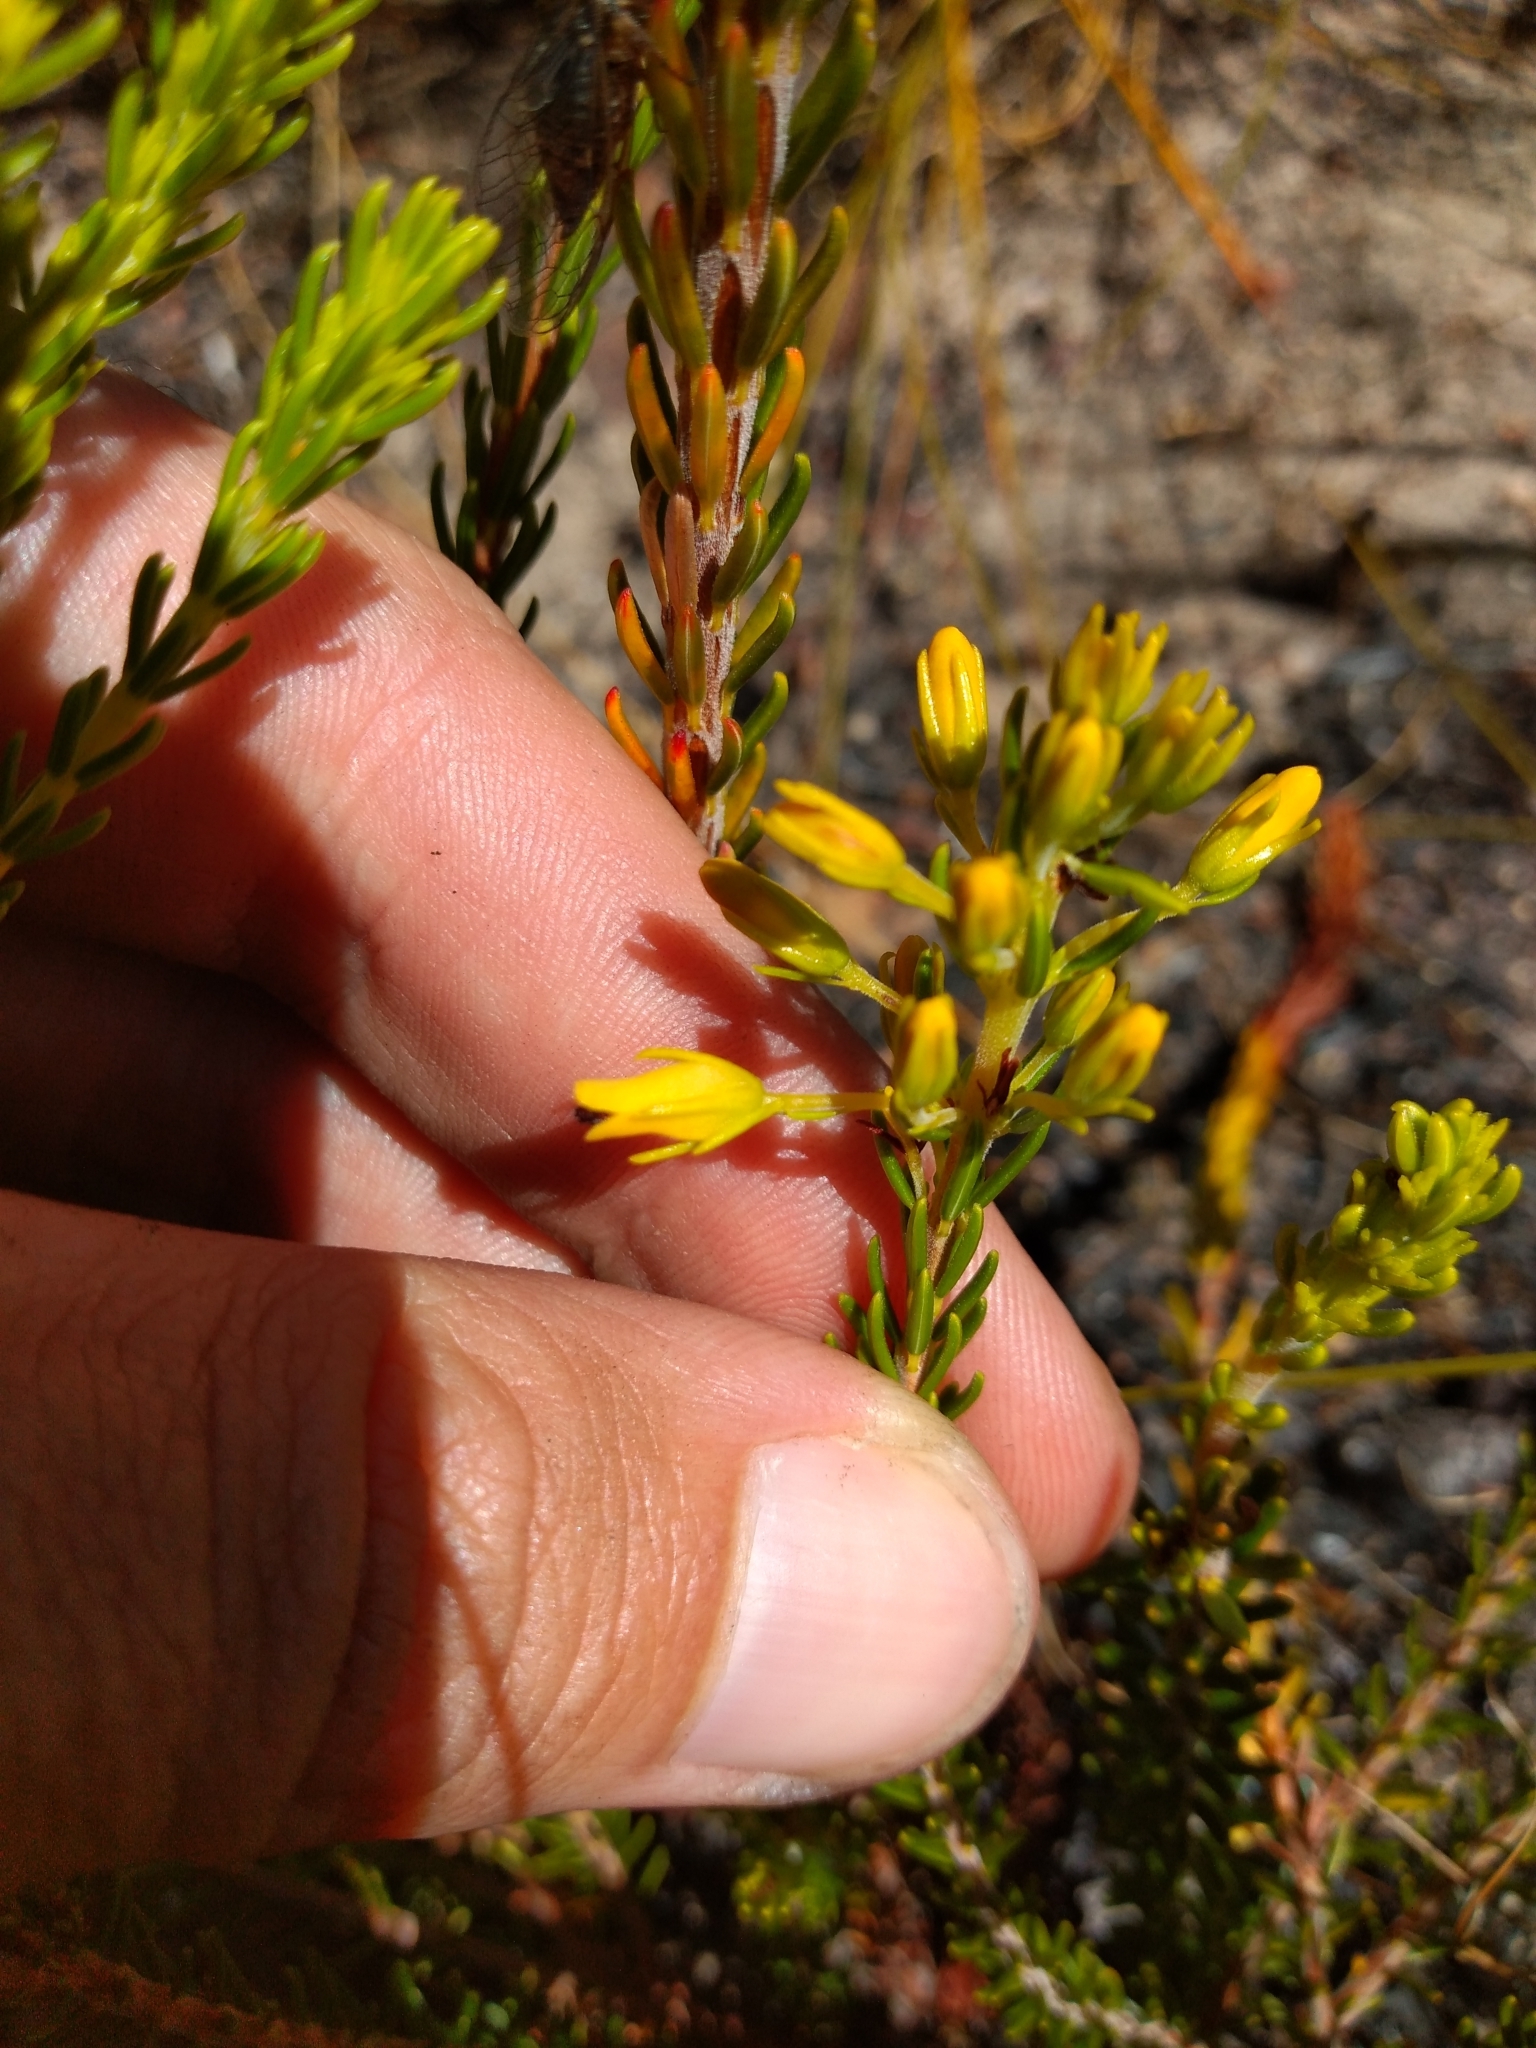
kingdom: Plantae
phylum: Tracheophyta
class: Magnoliopsida
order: Ericales
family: Ericaceae
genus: Erica
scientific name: Erica parilis
